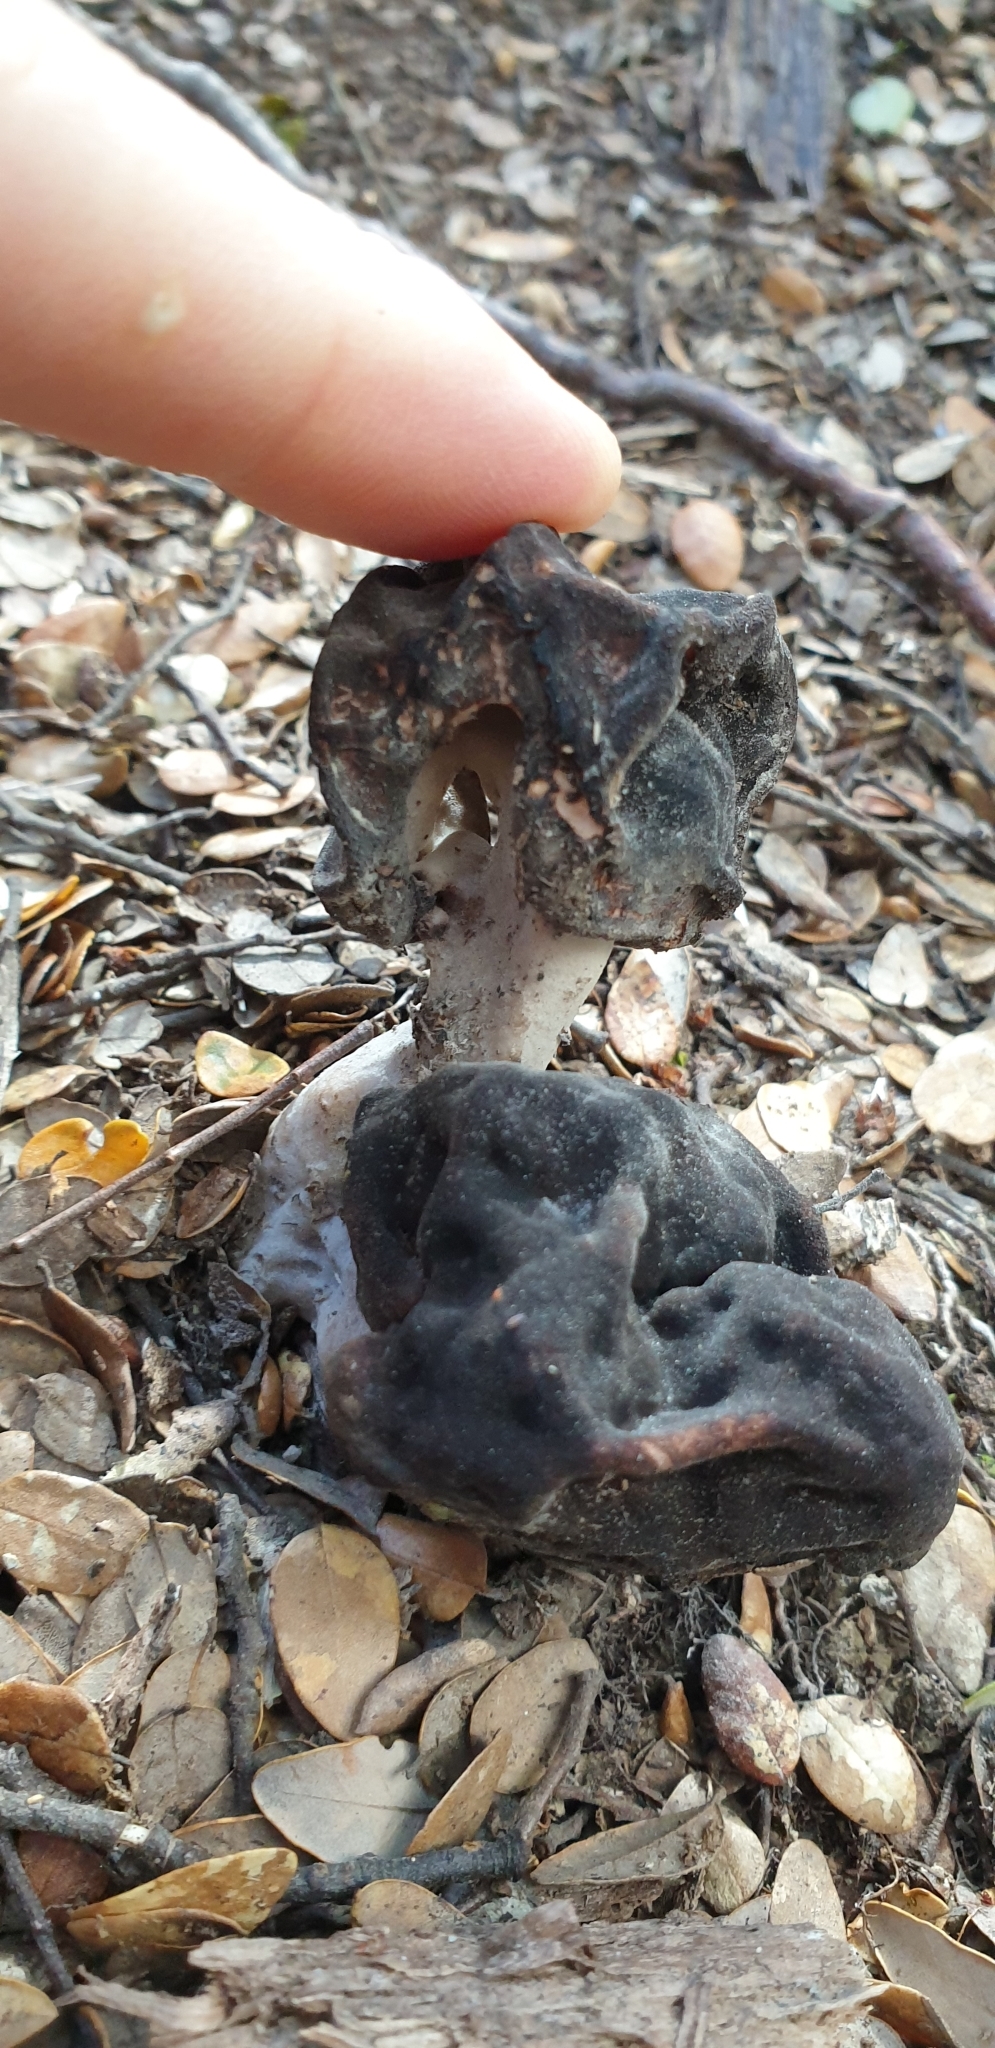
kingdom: Fungi
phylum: Ascomycota
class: Pezizomycetes
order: Pezizales
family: Discinaceae
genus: Gyromitra
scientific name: Gyromitra tasmanica
